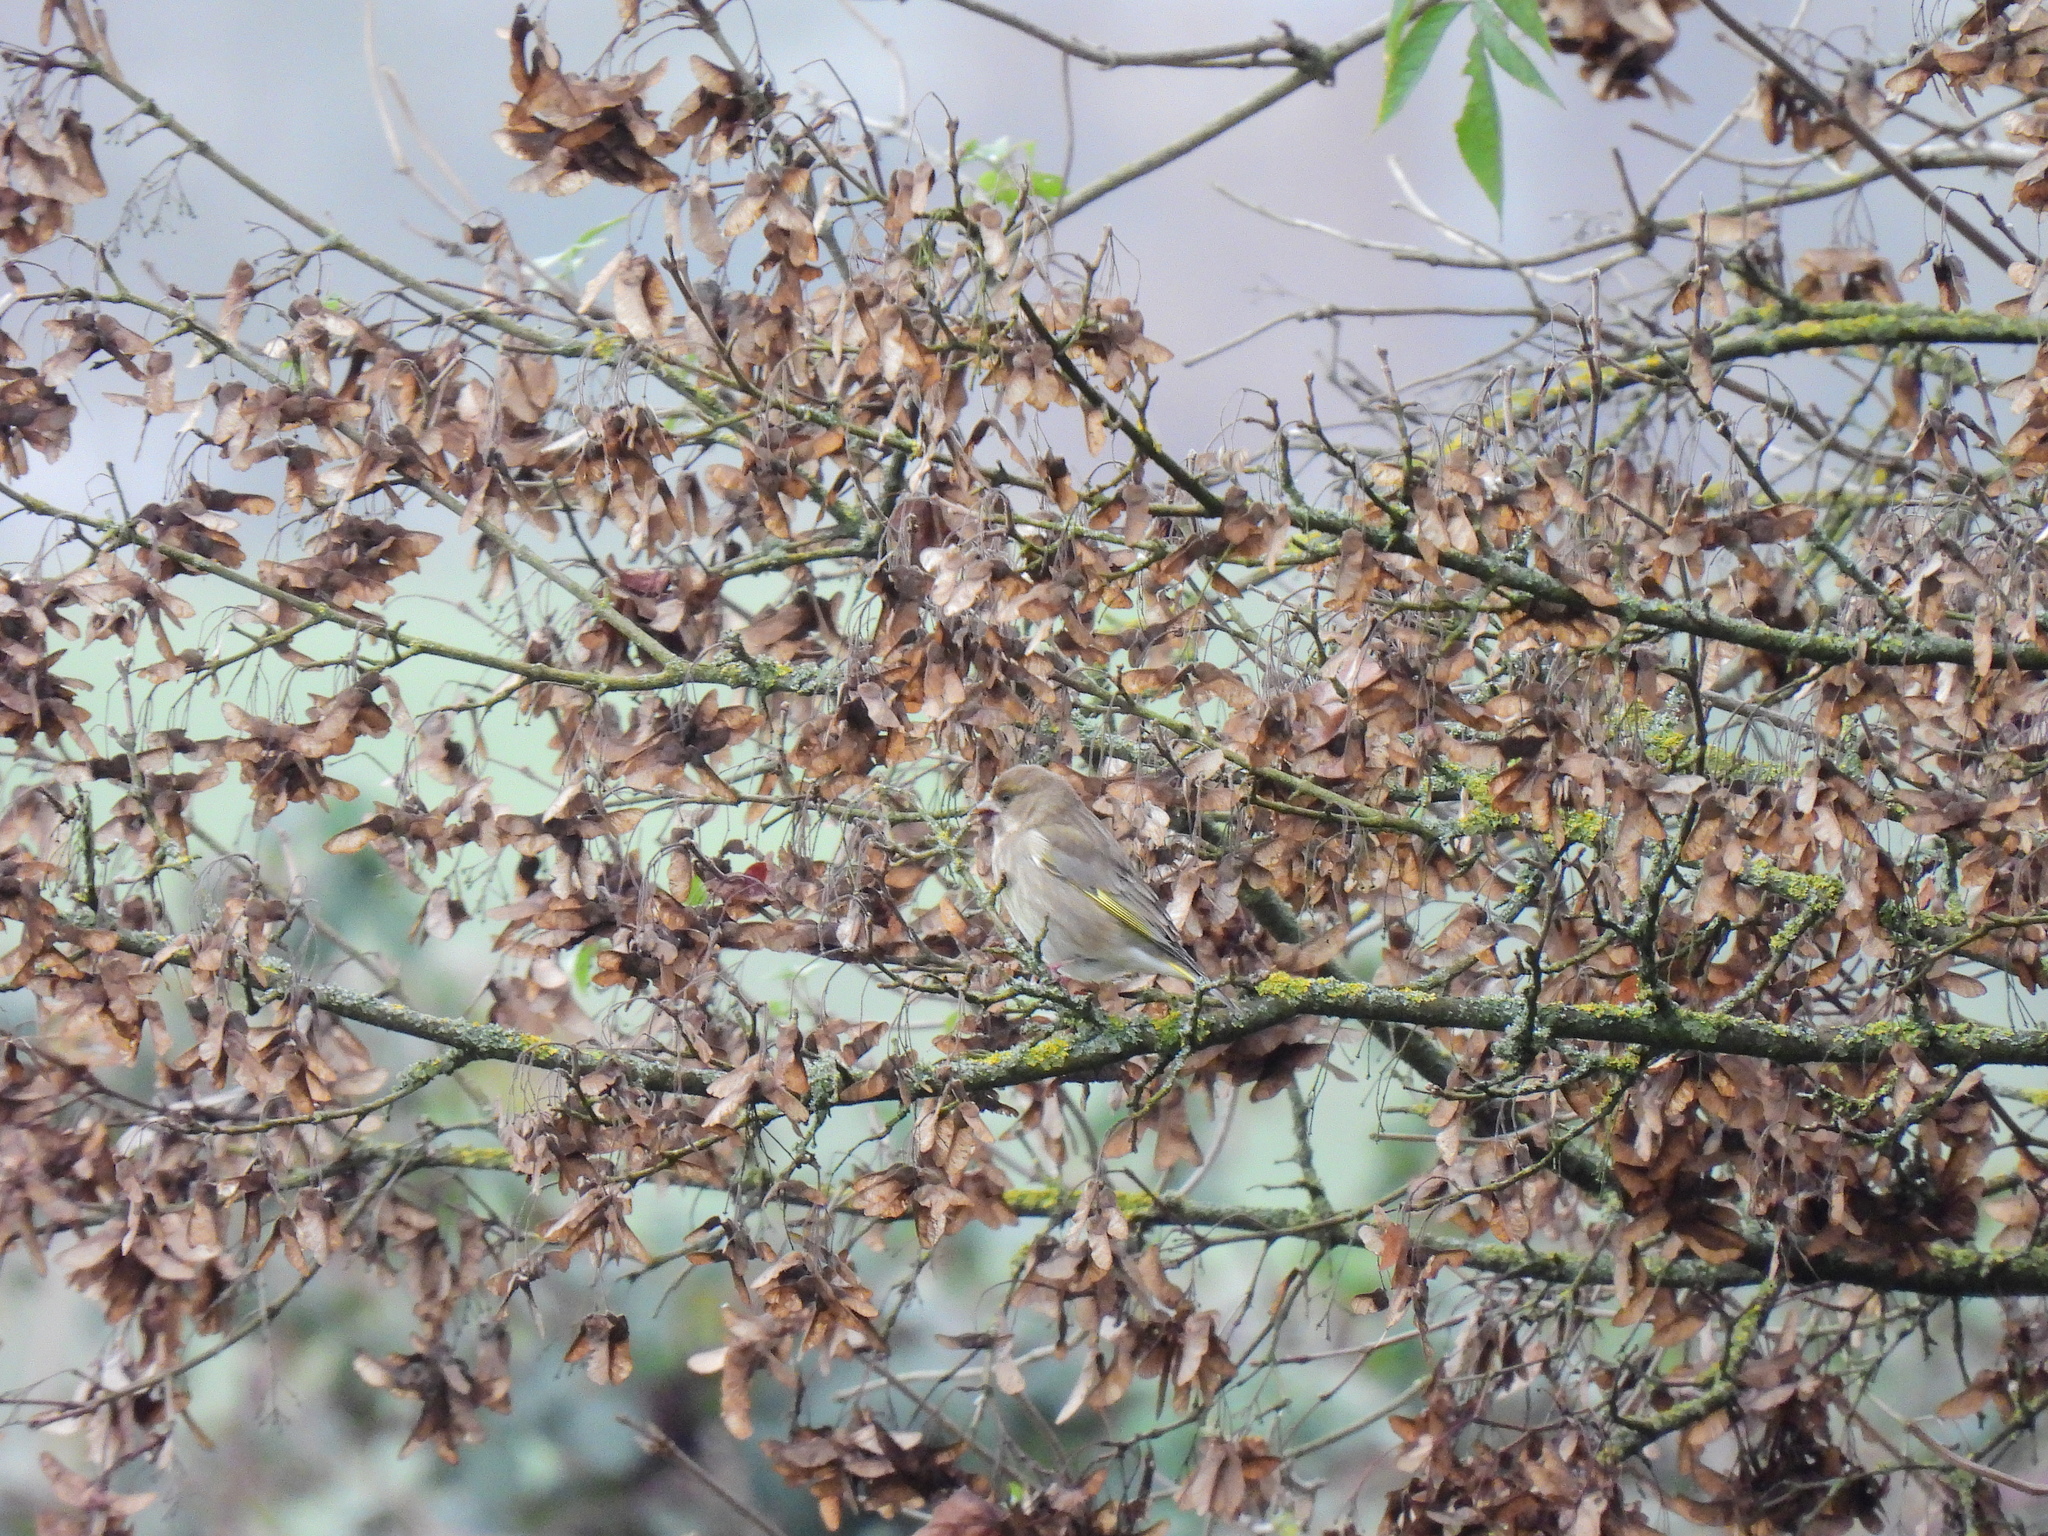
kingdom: Plantae
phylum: Tracheophyta
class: Liliopsida
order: Poales
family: Poaceae
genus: Chloris
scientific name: Chloris chloris
